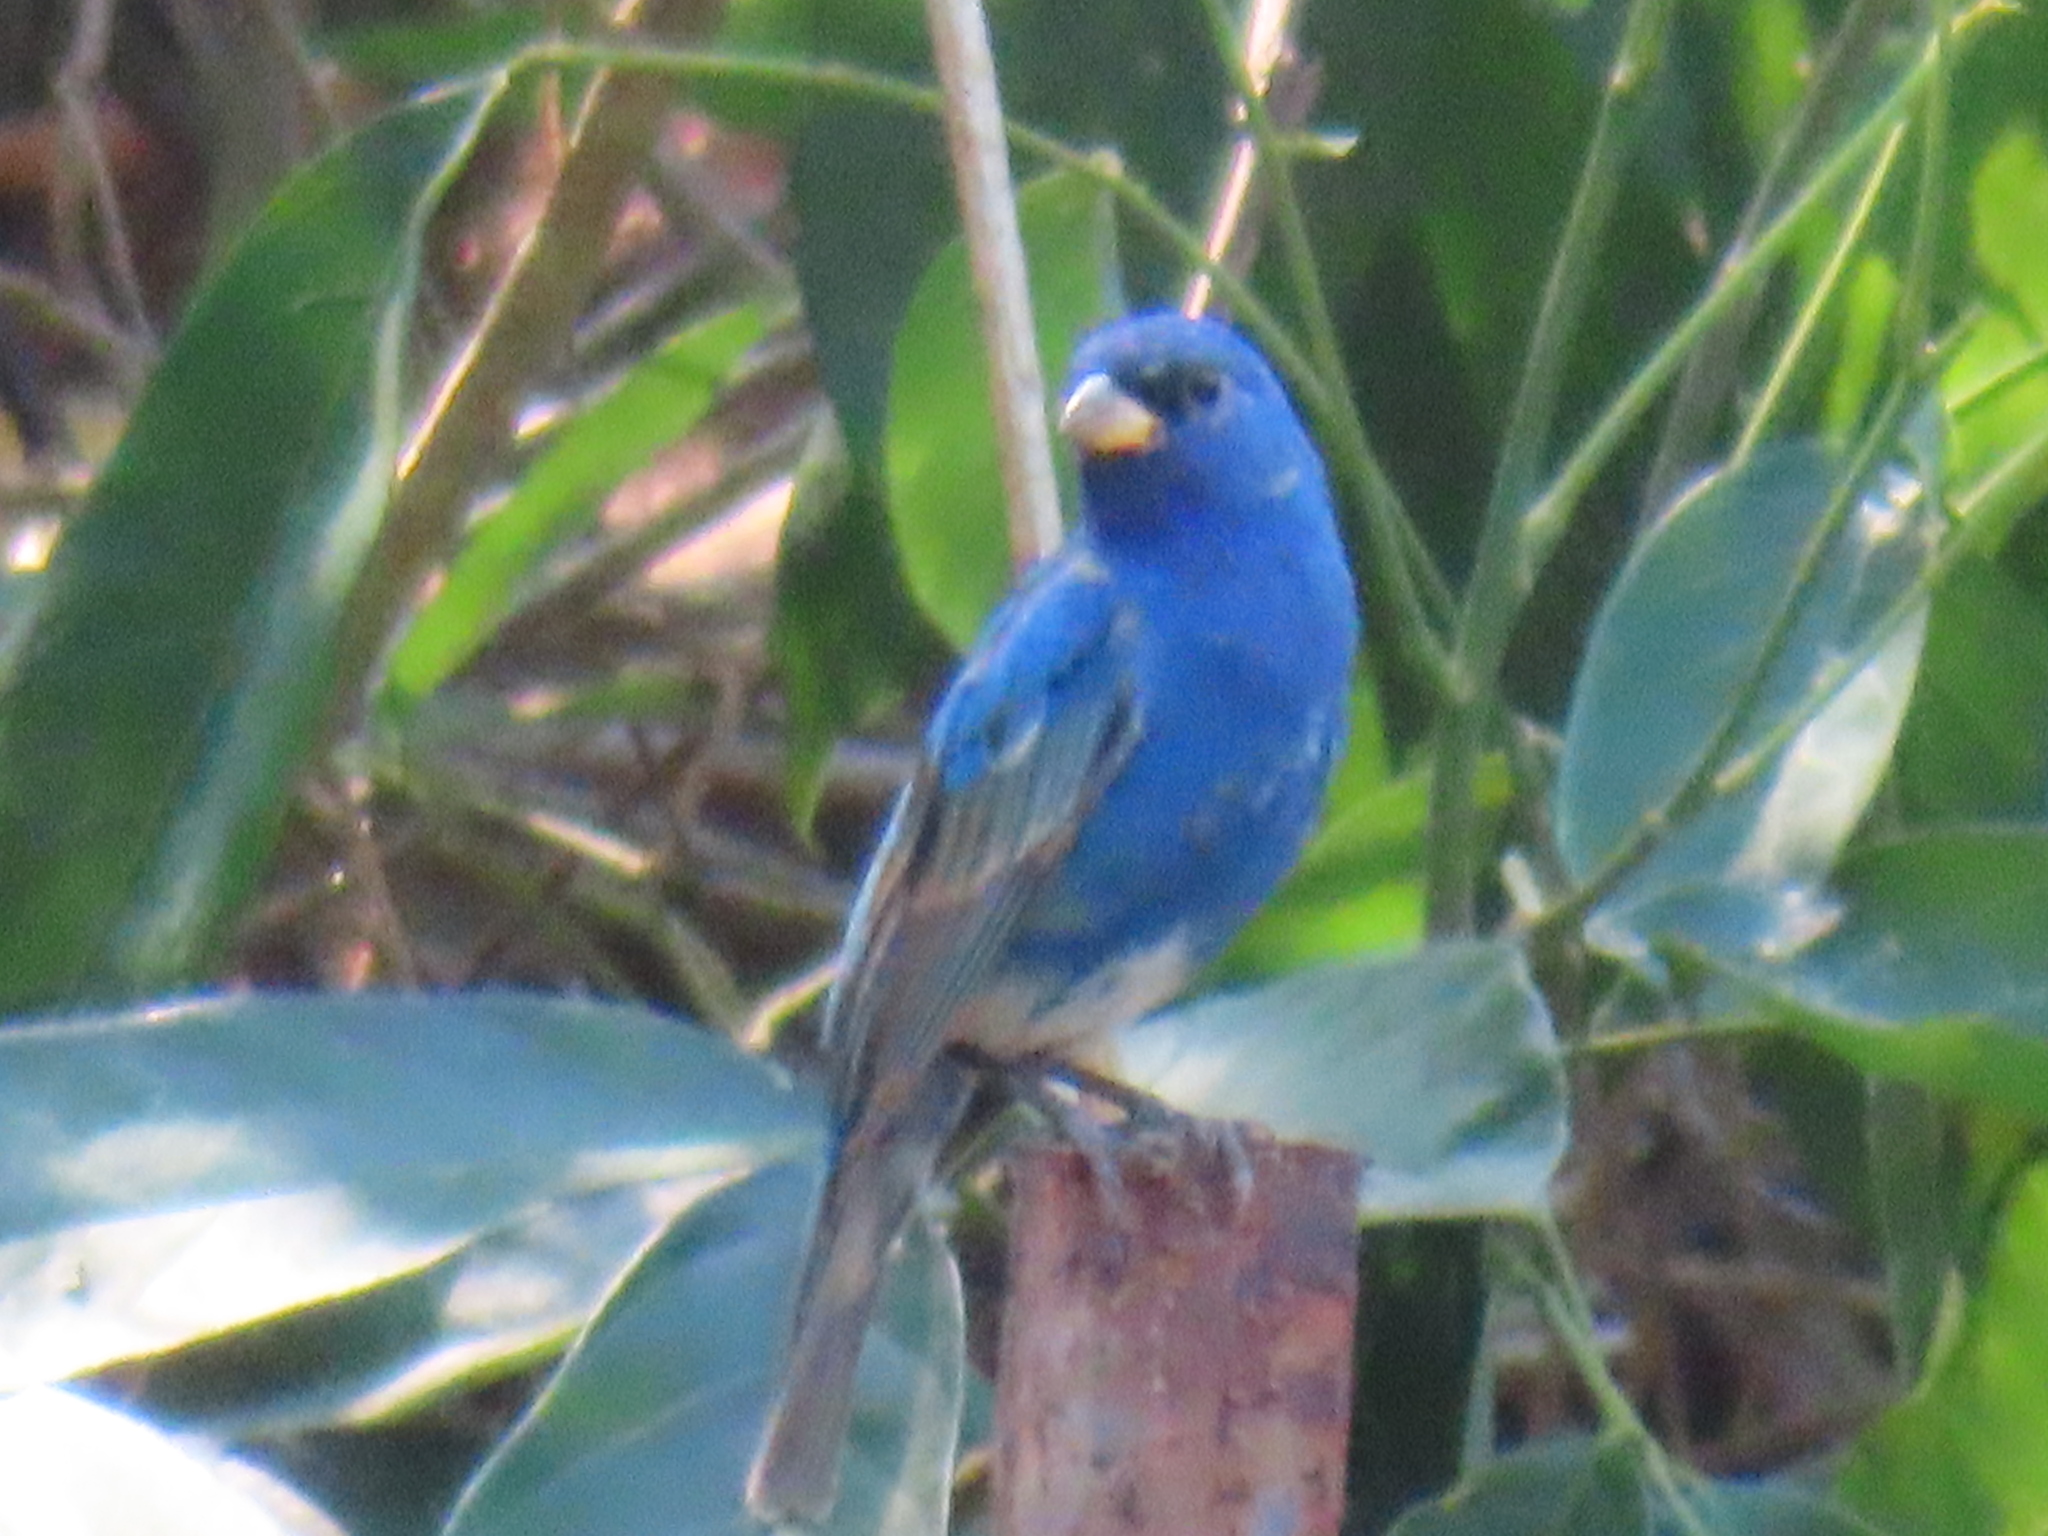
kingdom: Animalia
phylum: Chordata
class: Aves
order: Passeriformes
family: Cardinalidae
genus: Passerina
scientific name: Passerina cyanea
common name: Indigo bunting
